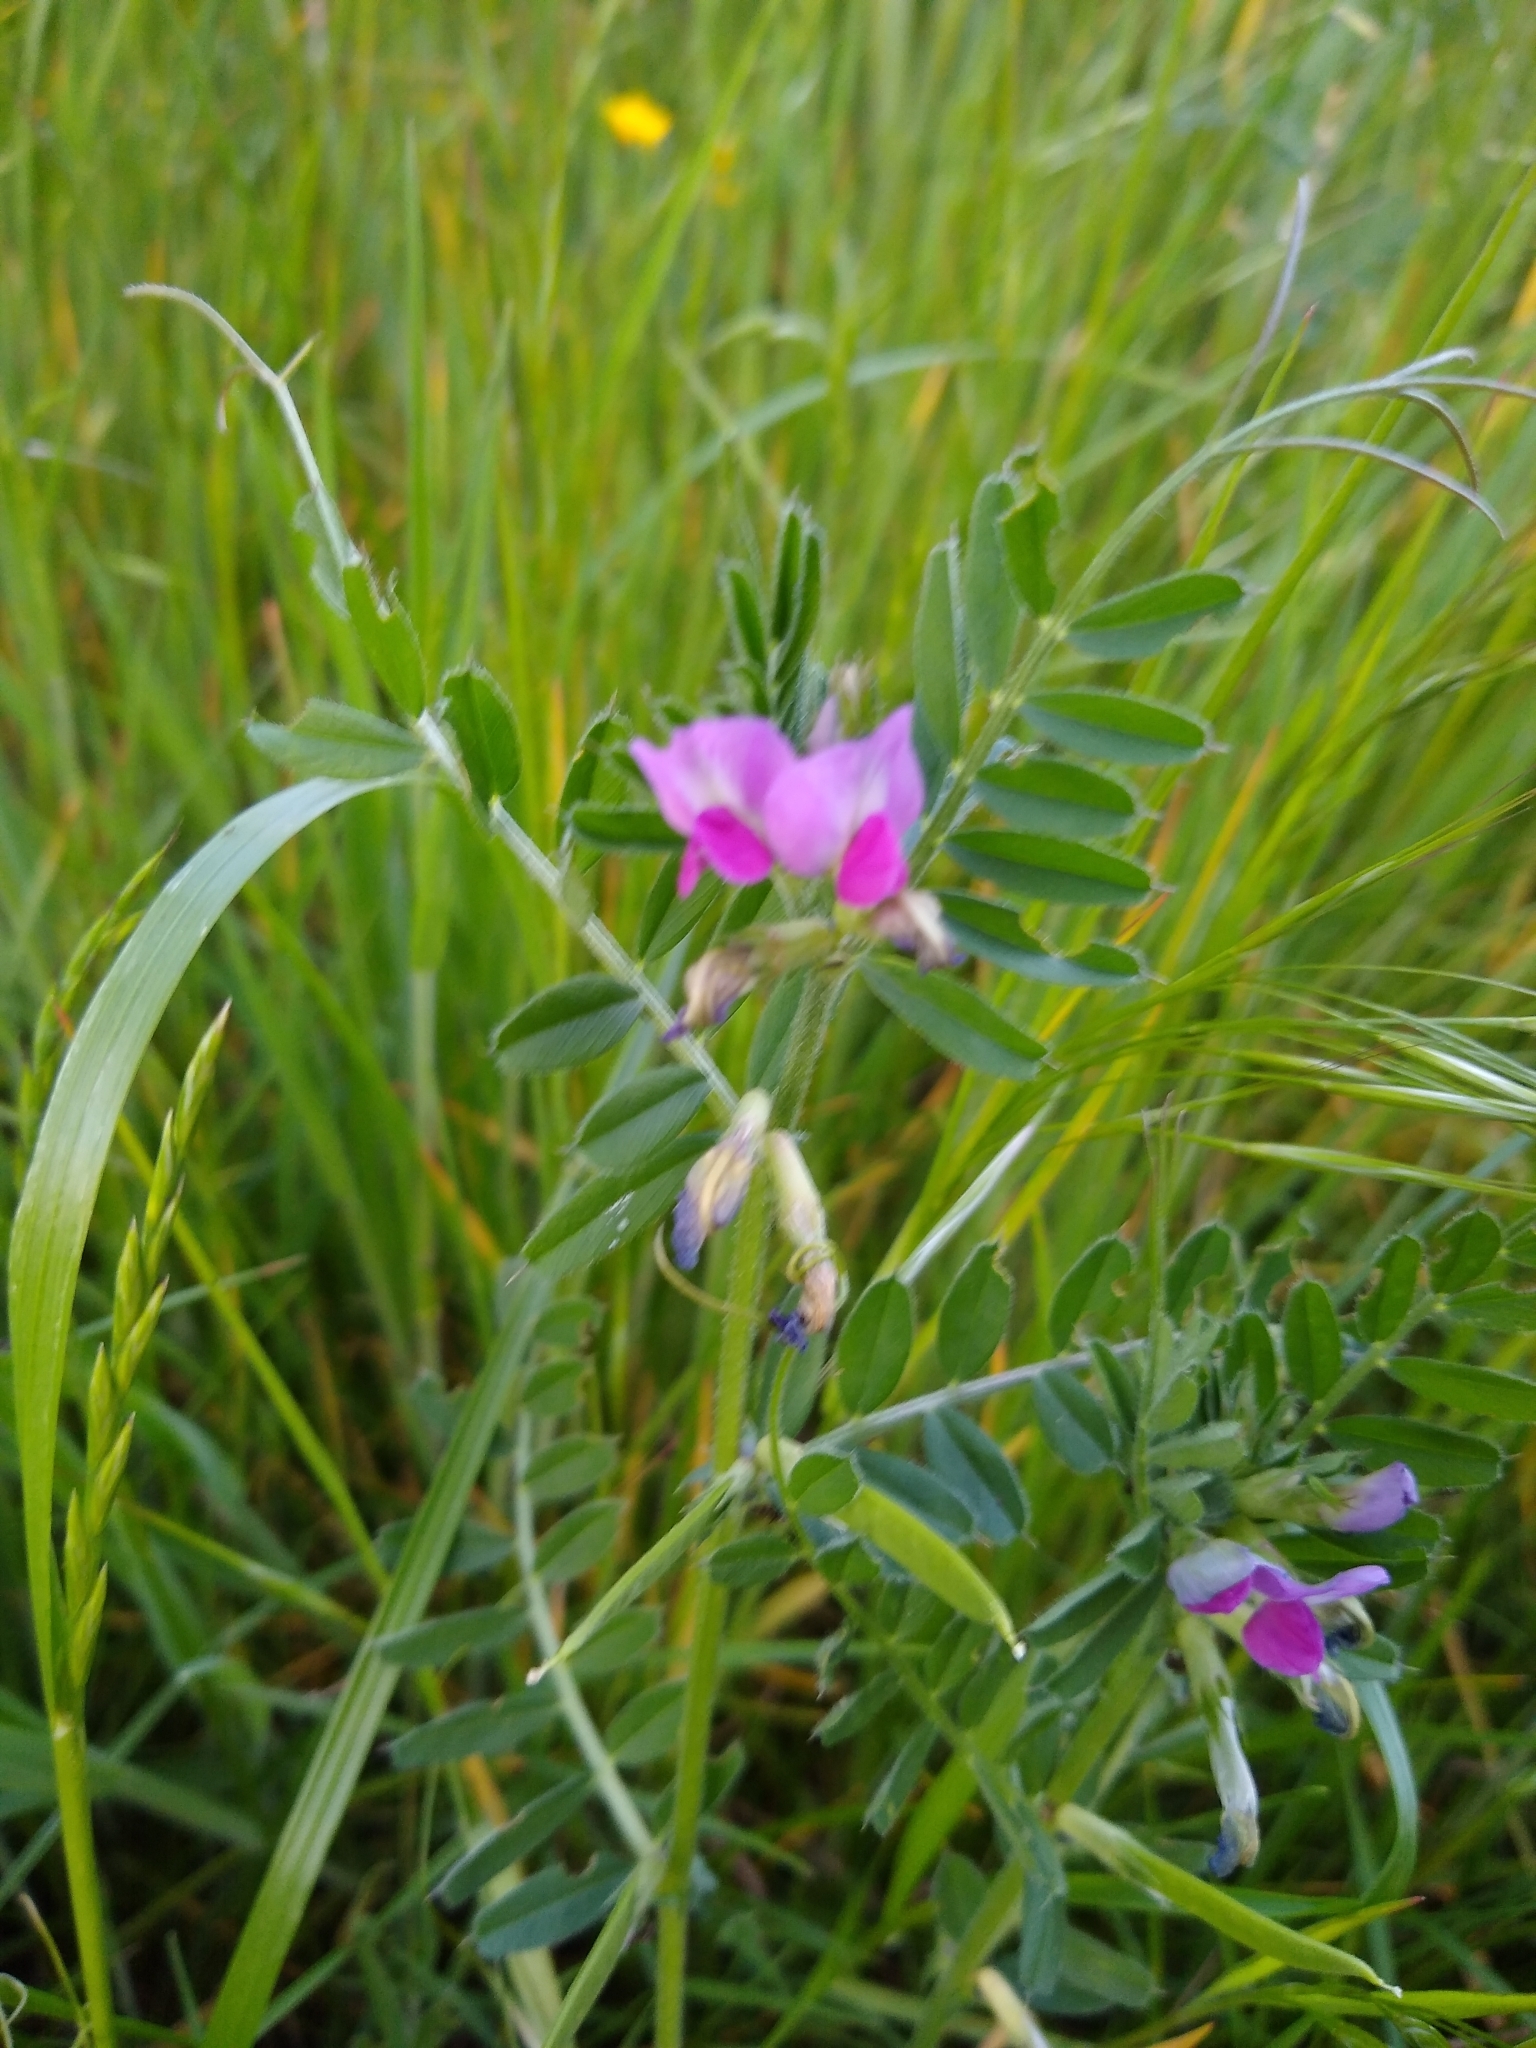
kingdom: Plantae
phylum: Tracheophyta
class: Magnoliopsida
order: Fabales
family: Fabaceae
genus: Vicia
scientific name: Vicia sativa
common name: Garden vetch
